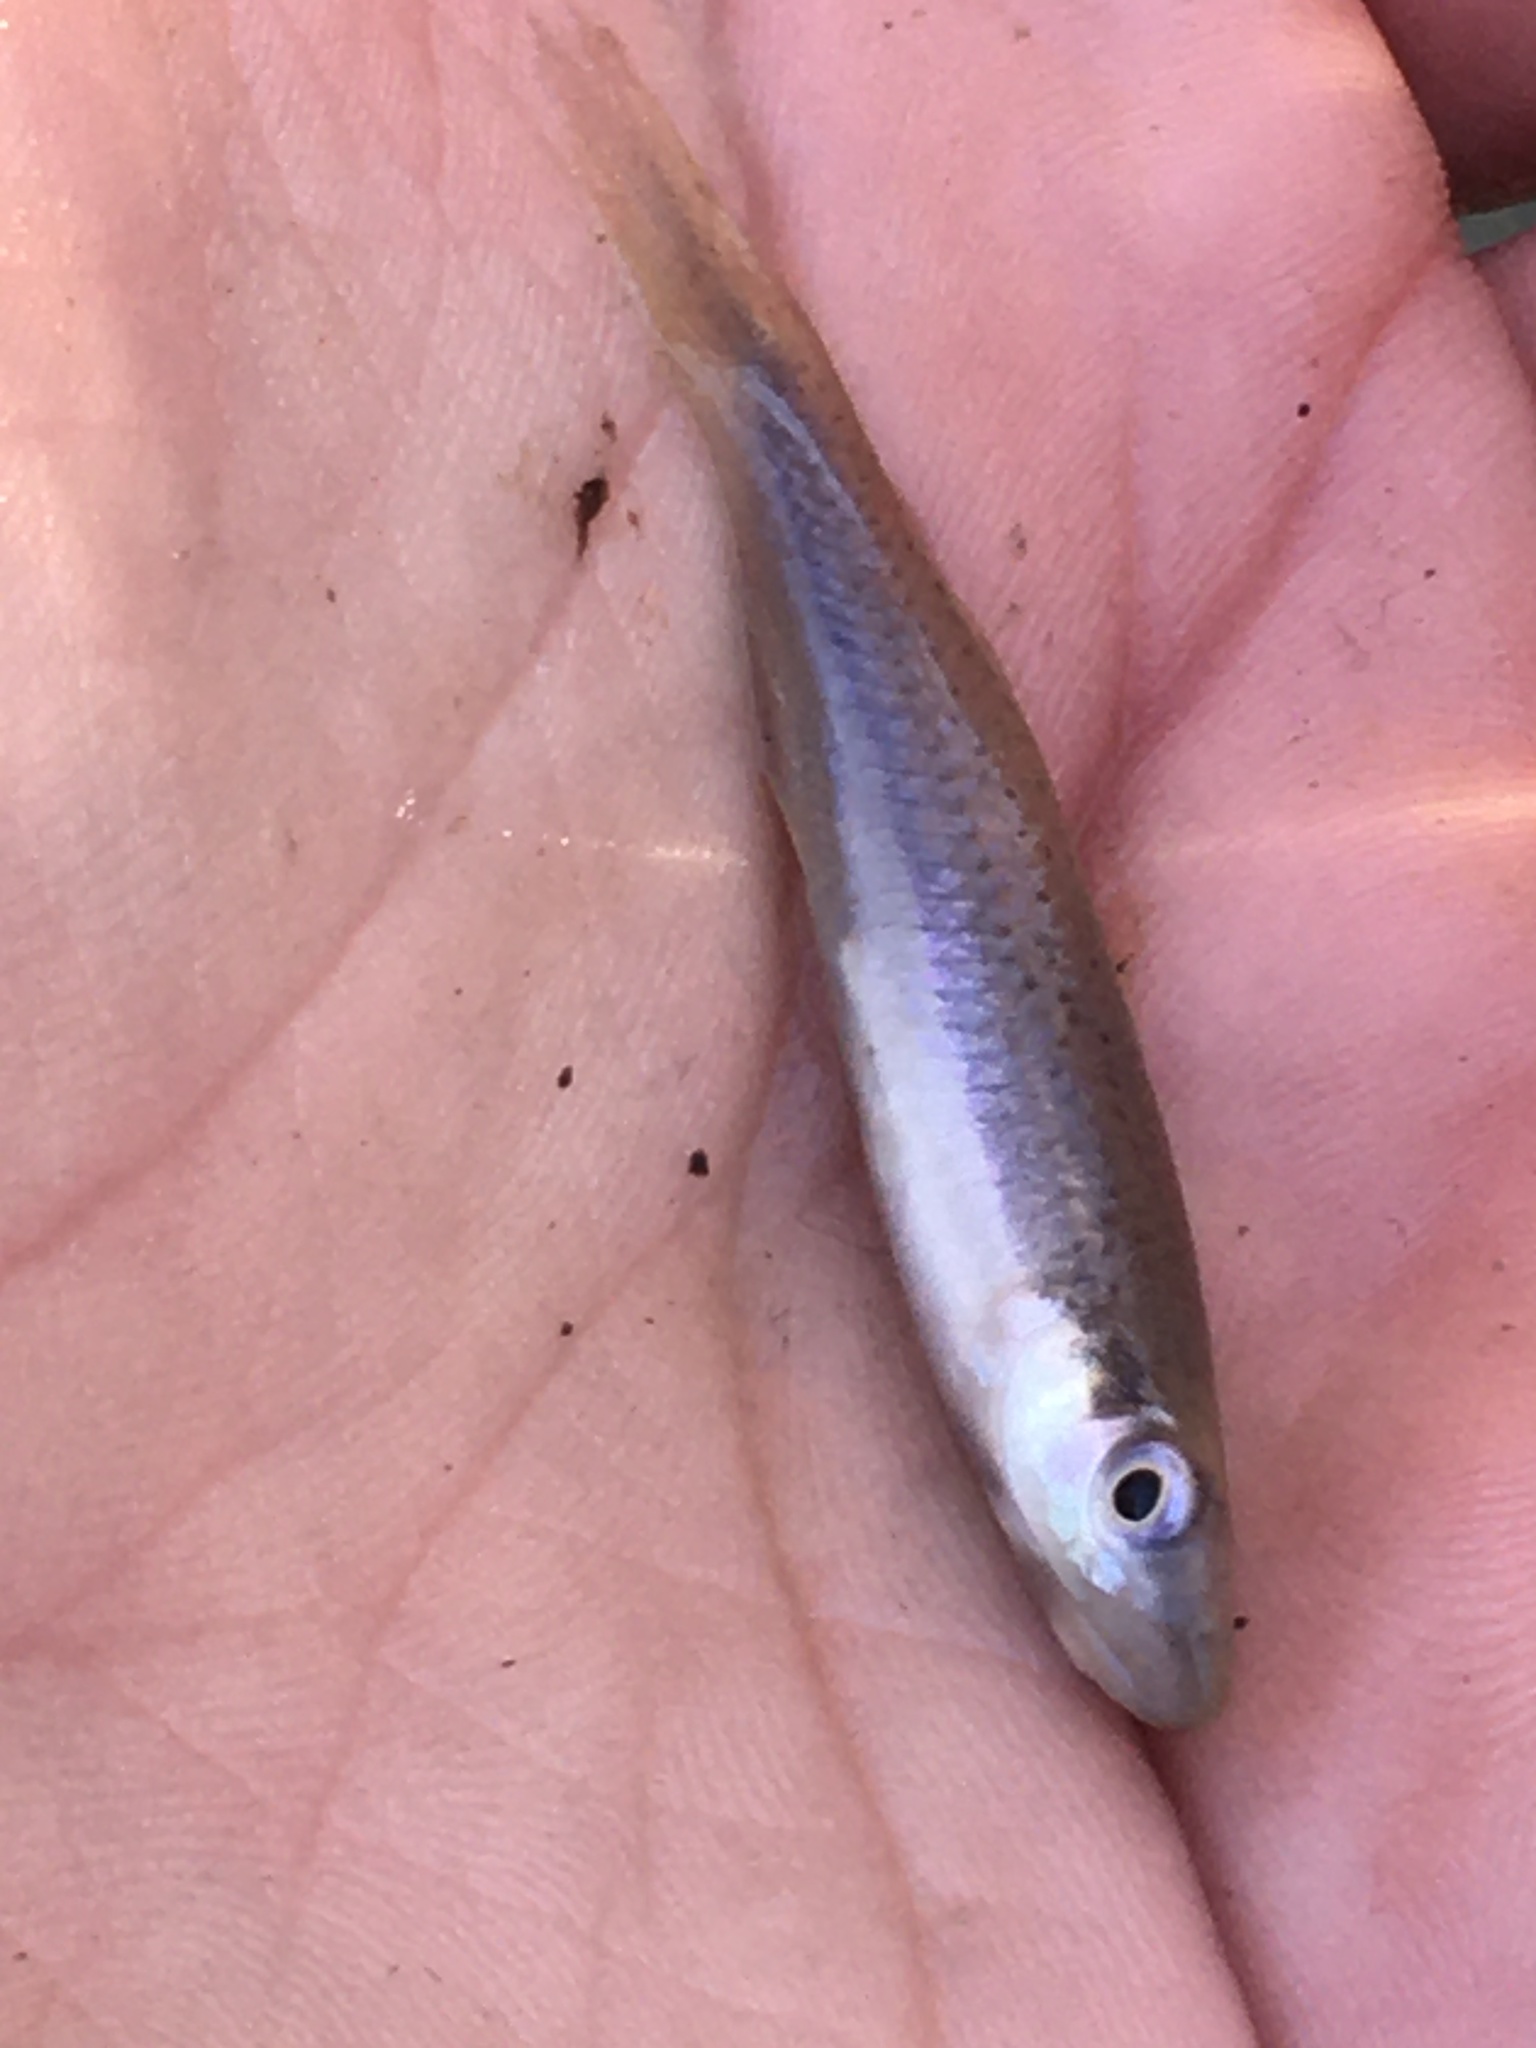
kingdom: Animalia
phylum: Chordata
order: Cyprinodontiformes
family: Fundulidae
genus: Fundulus
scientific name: Fundulus olivaceus
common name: Blackspotted topminnow
